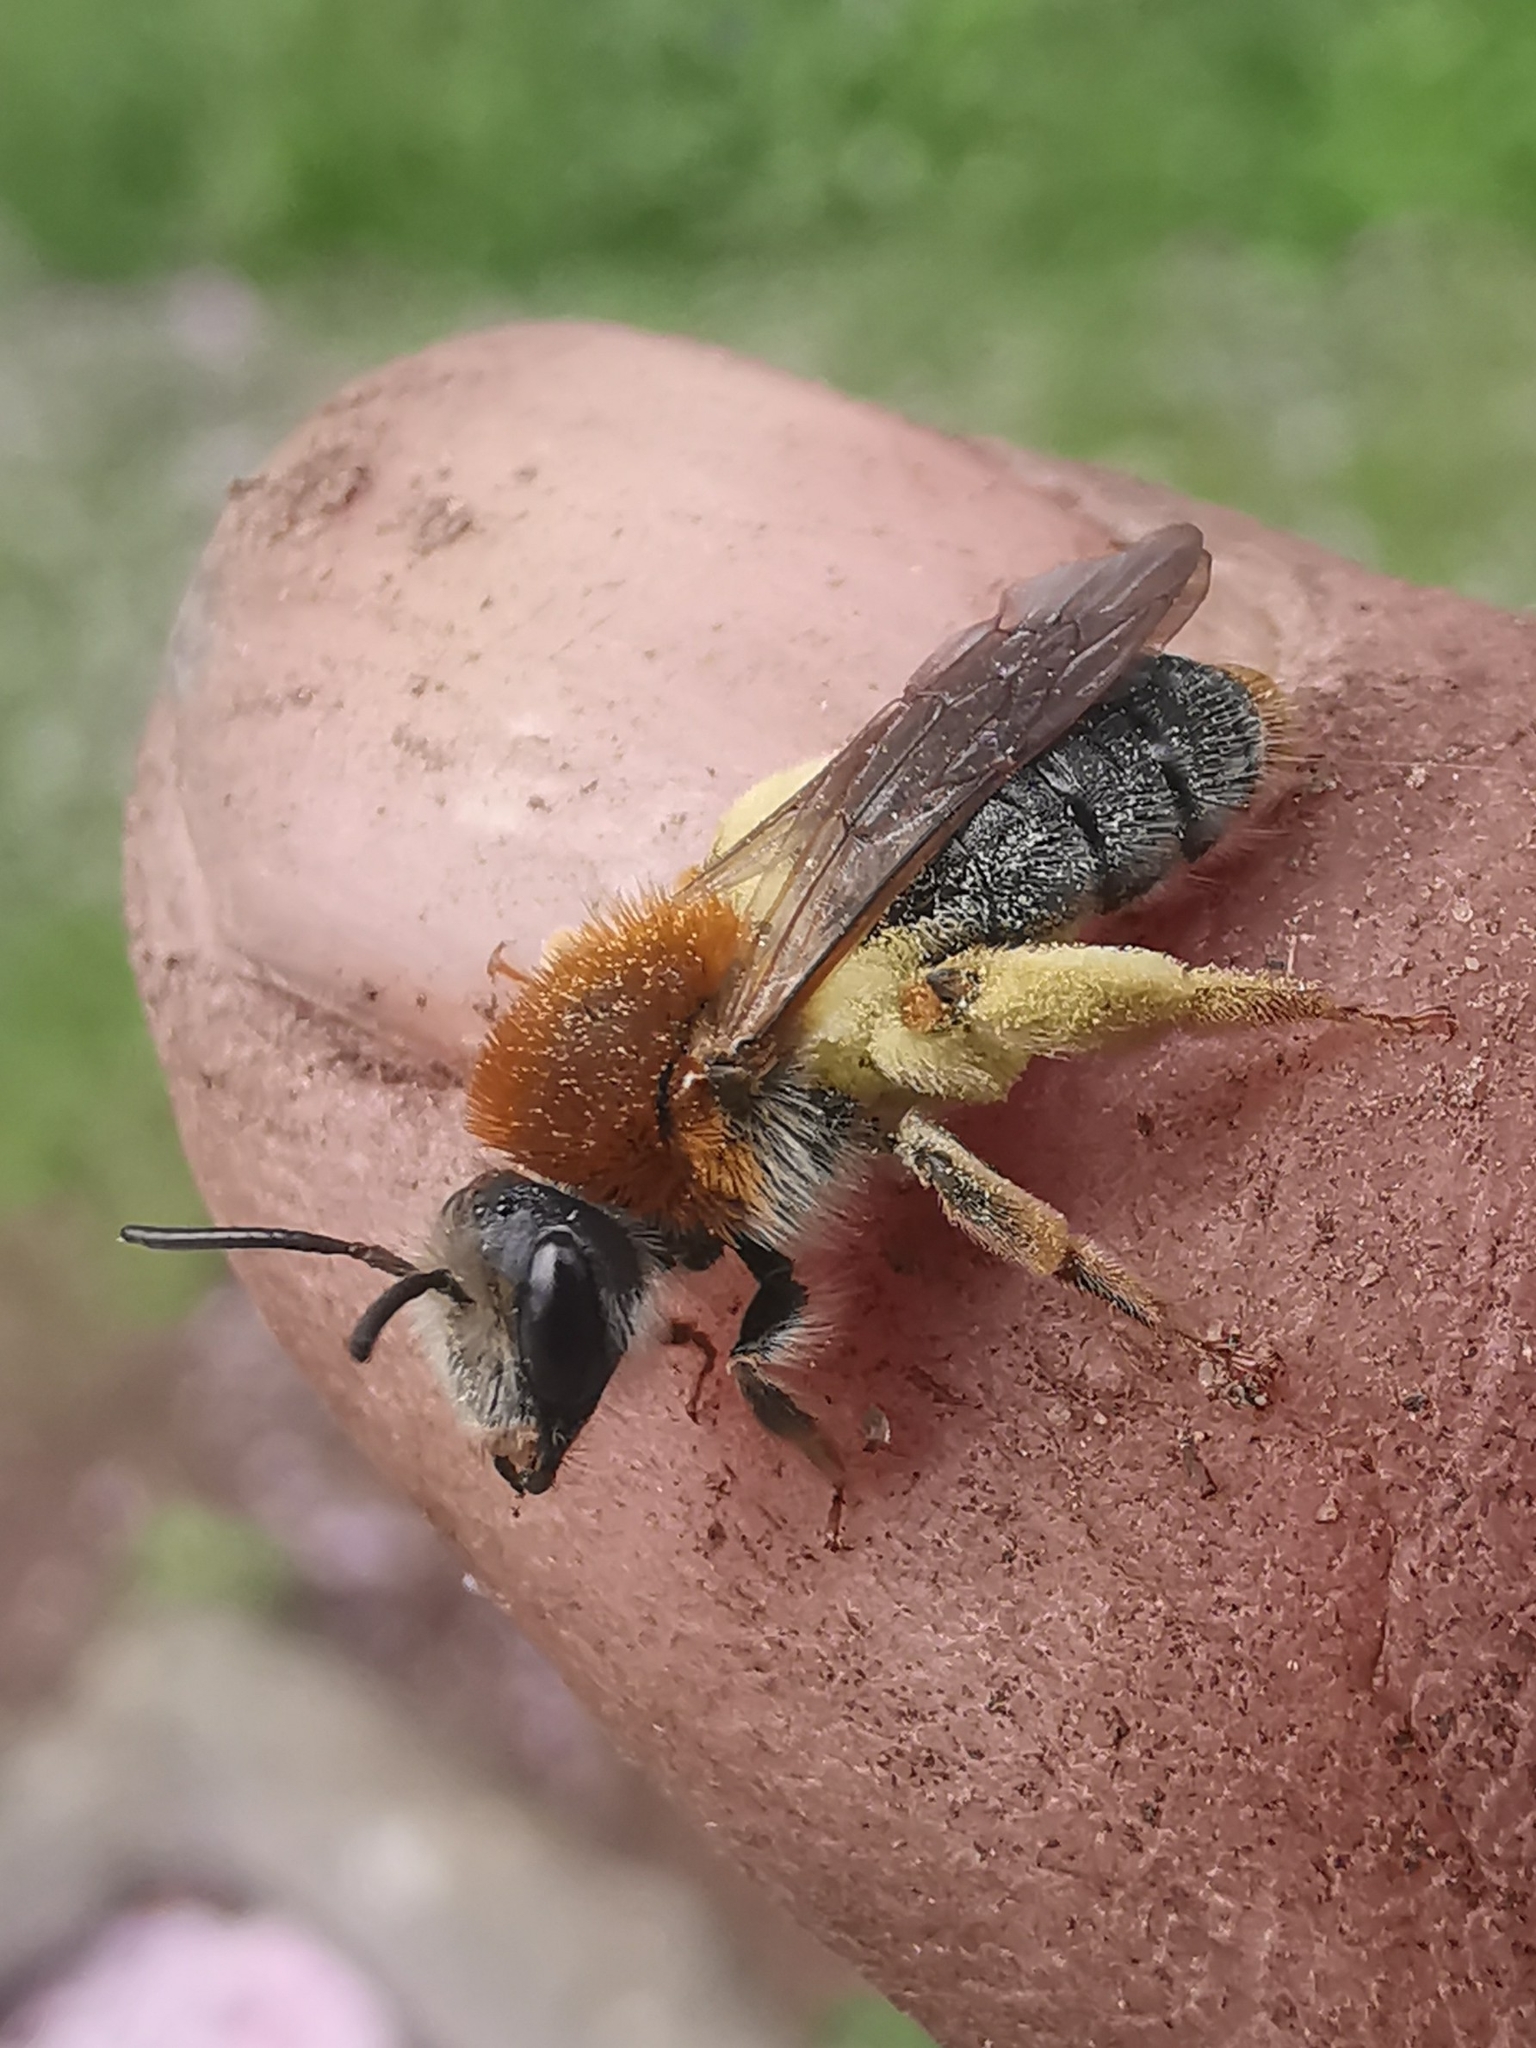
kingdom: Animalia
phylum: Arthropoda
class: Insecta
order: Hymenoptera
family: Andrenidae
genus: Andrena
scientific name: Andrena haemorrhoa
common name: Early mining bee
